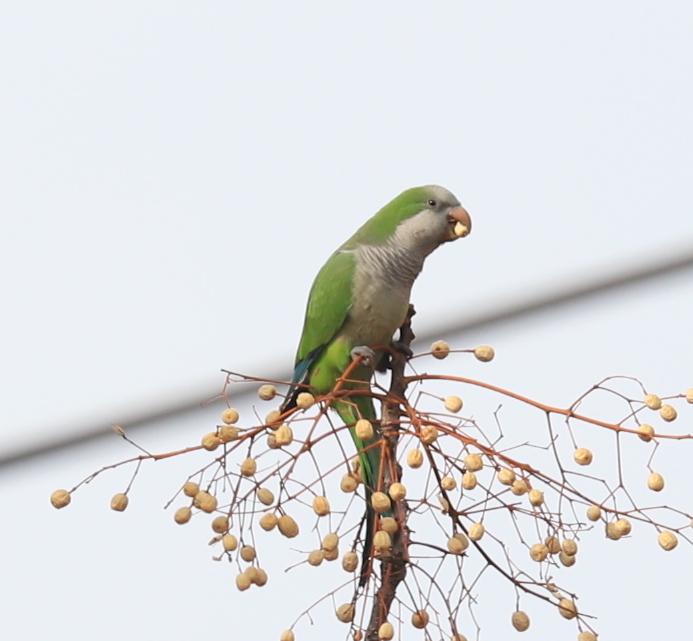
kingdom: Animalia
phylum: Chordata
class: Aves
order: Psittaciformes
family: Psittacidae
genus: Myiopsitta
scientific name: Myiopsitta monachus
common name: Monk parakeet
